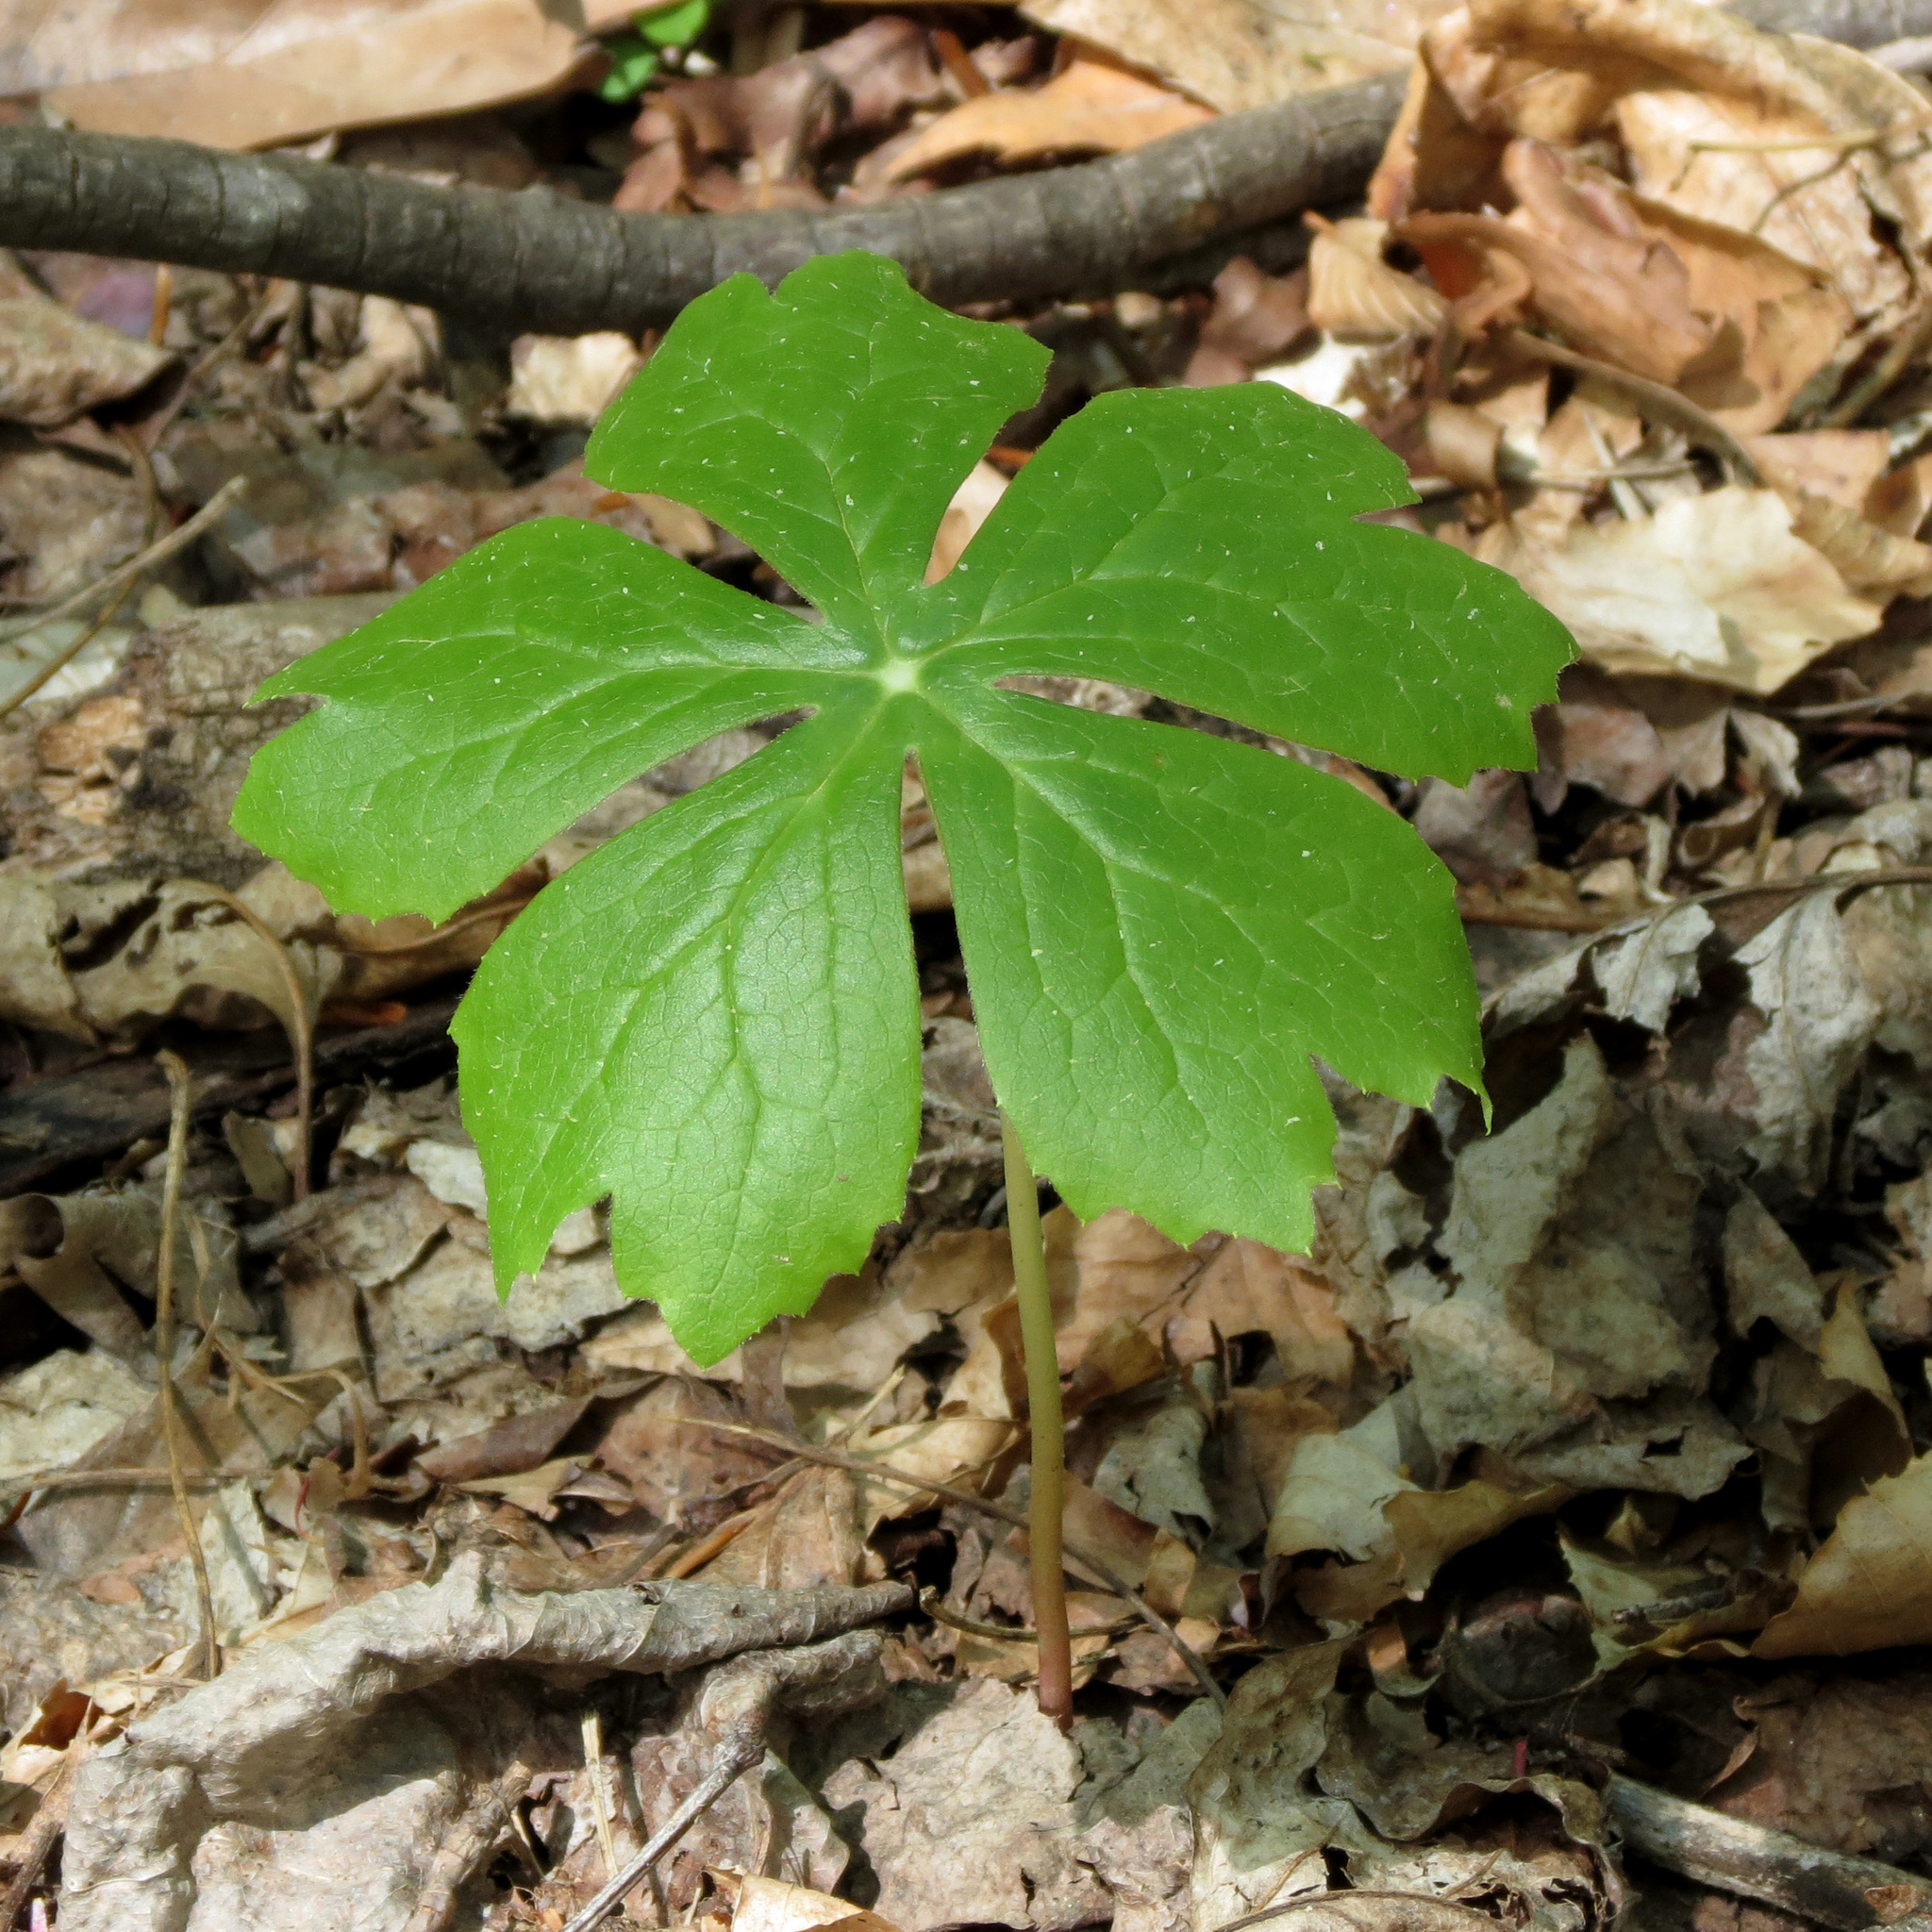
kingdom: Plantae
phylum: Tracheophyta
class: Magnoliopsida
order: Ranunculales
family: Berberidaceae
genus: Podophyllum
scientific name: Podophyllum peltatum
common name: Wild mandrake
